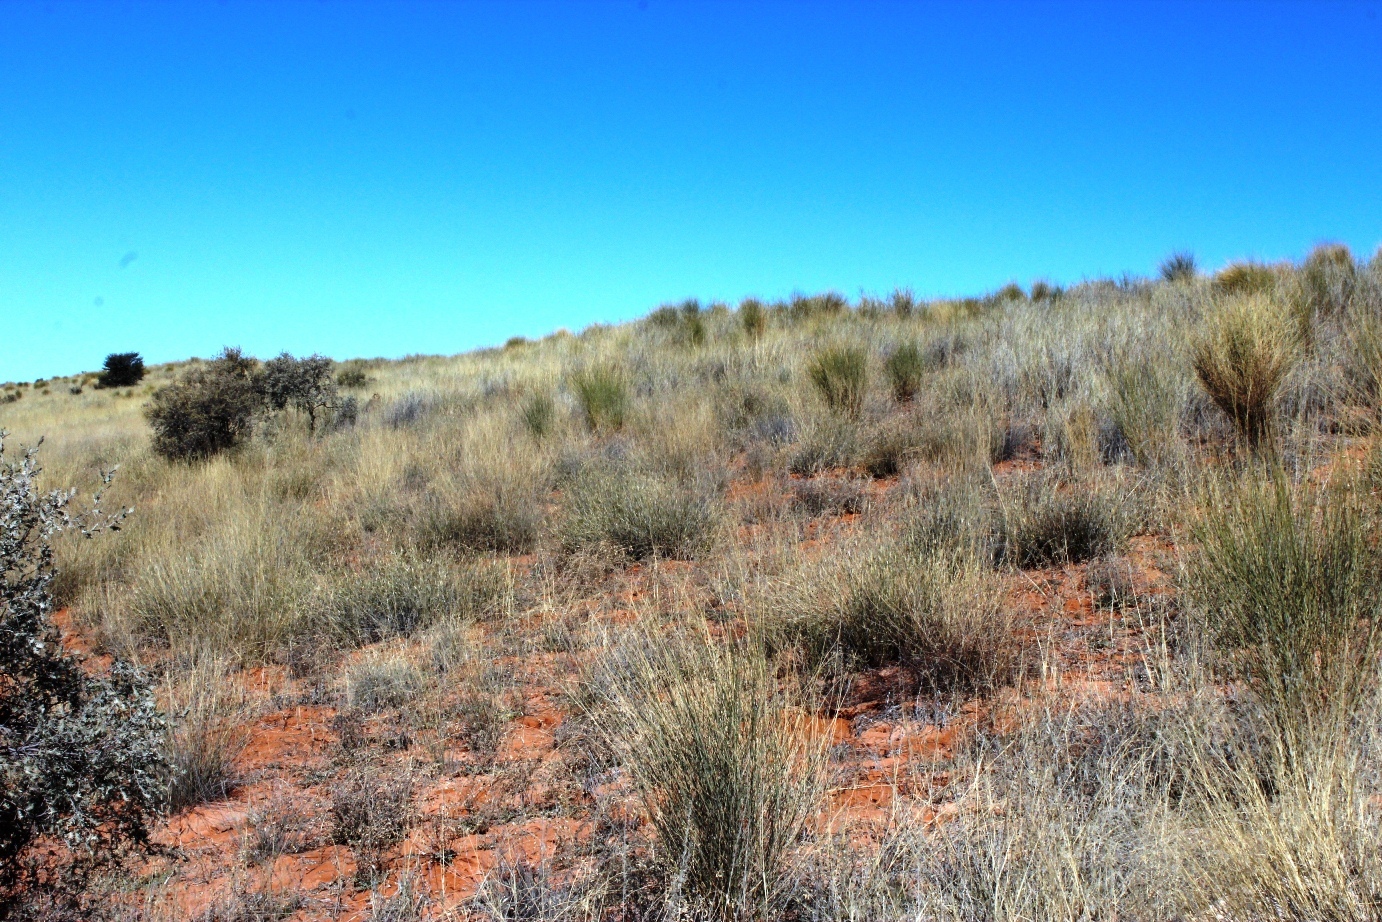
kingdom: Plantae
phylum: Tracheophyta
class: Magnoliopsida
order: Fabales
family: Fabaceae
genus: Crotalaria
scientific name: Crotalaria spartioides
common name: Dunebush
